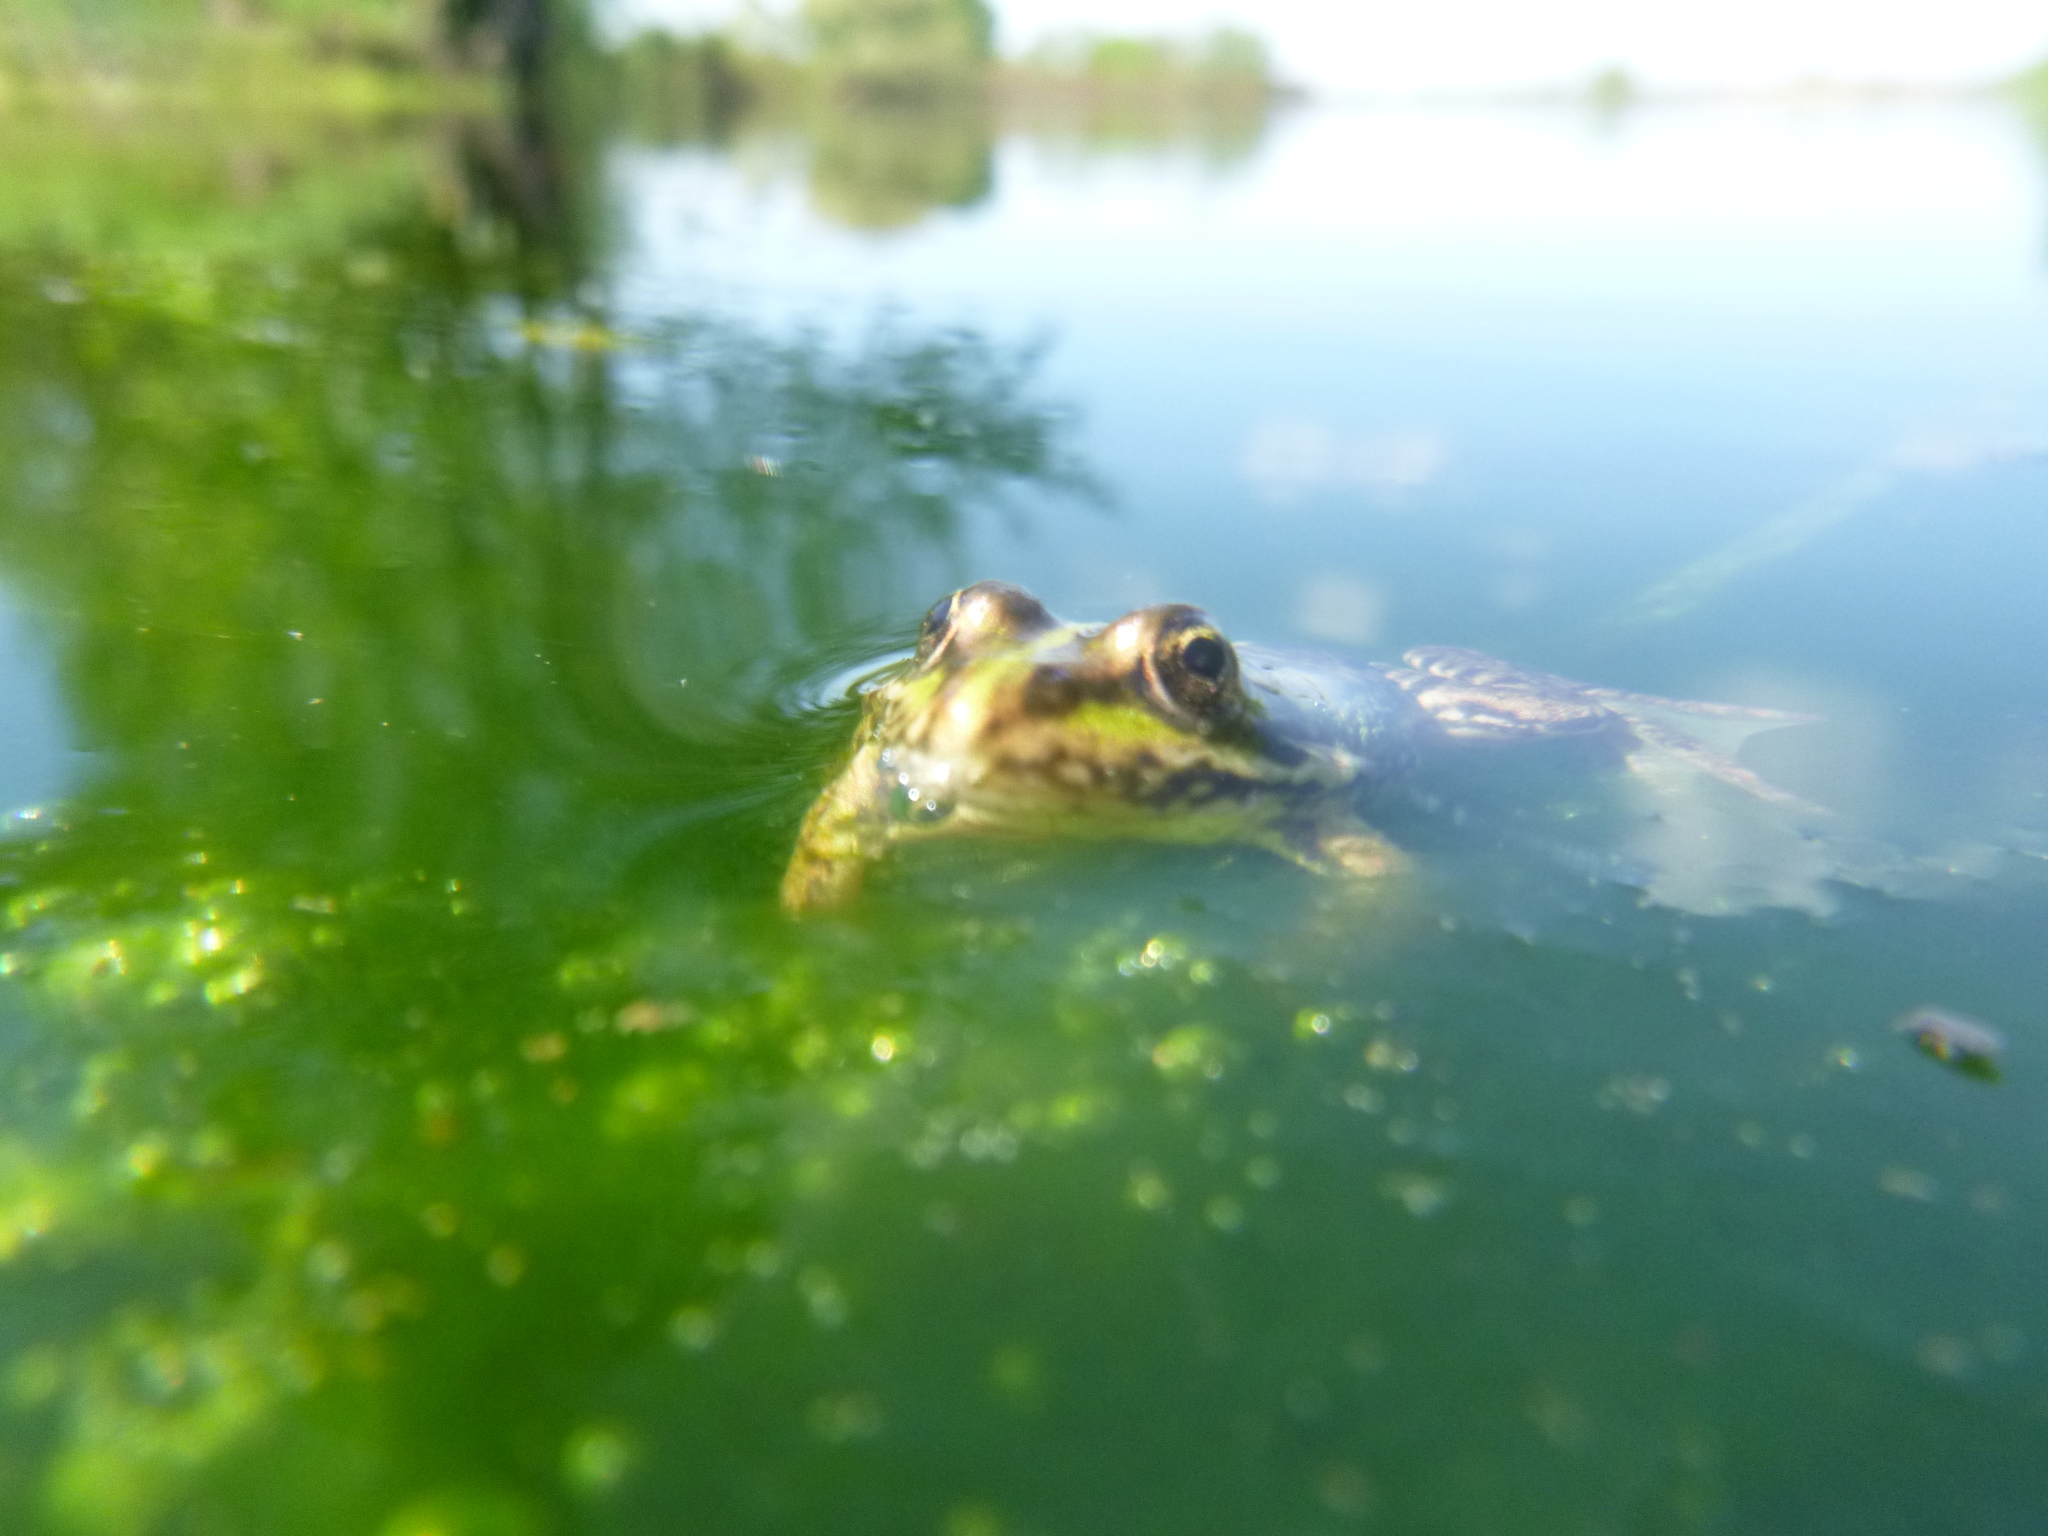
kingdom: Animalia
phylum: Chordata
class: Amphibia
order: Anura
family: Ranidae
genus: Pelophylax
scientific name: Pelophylax
